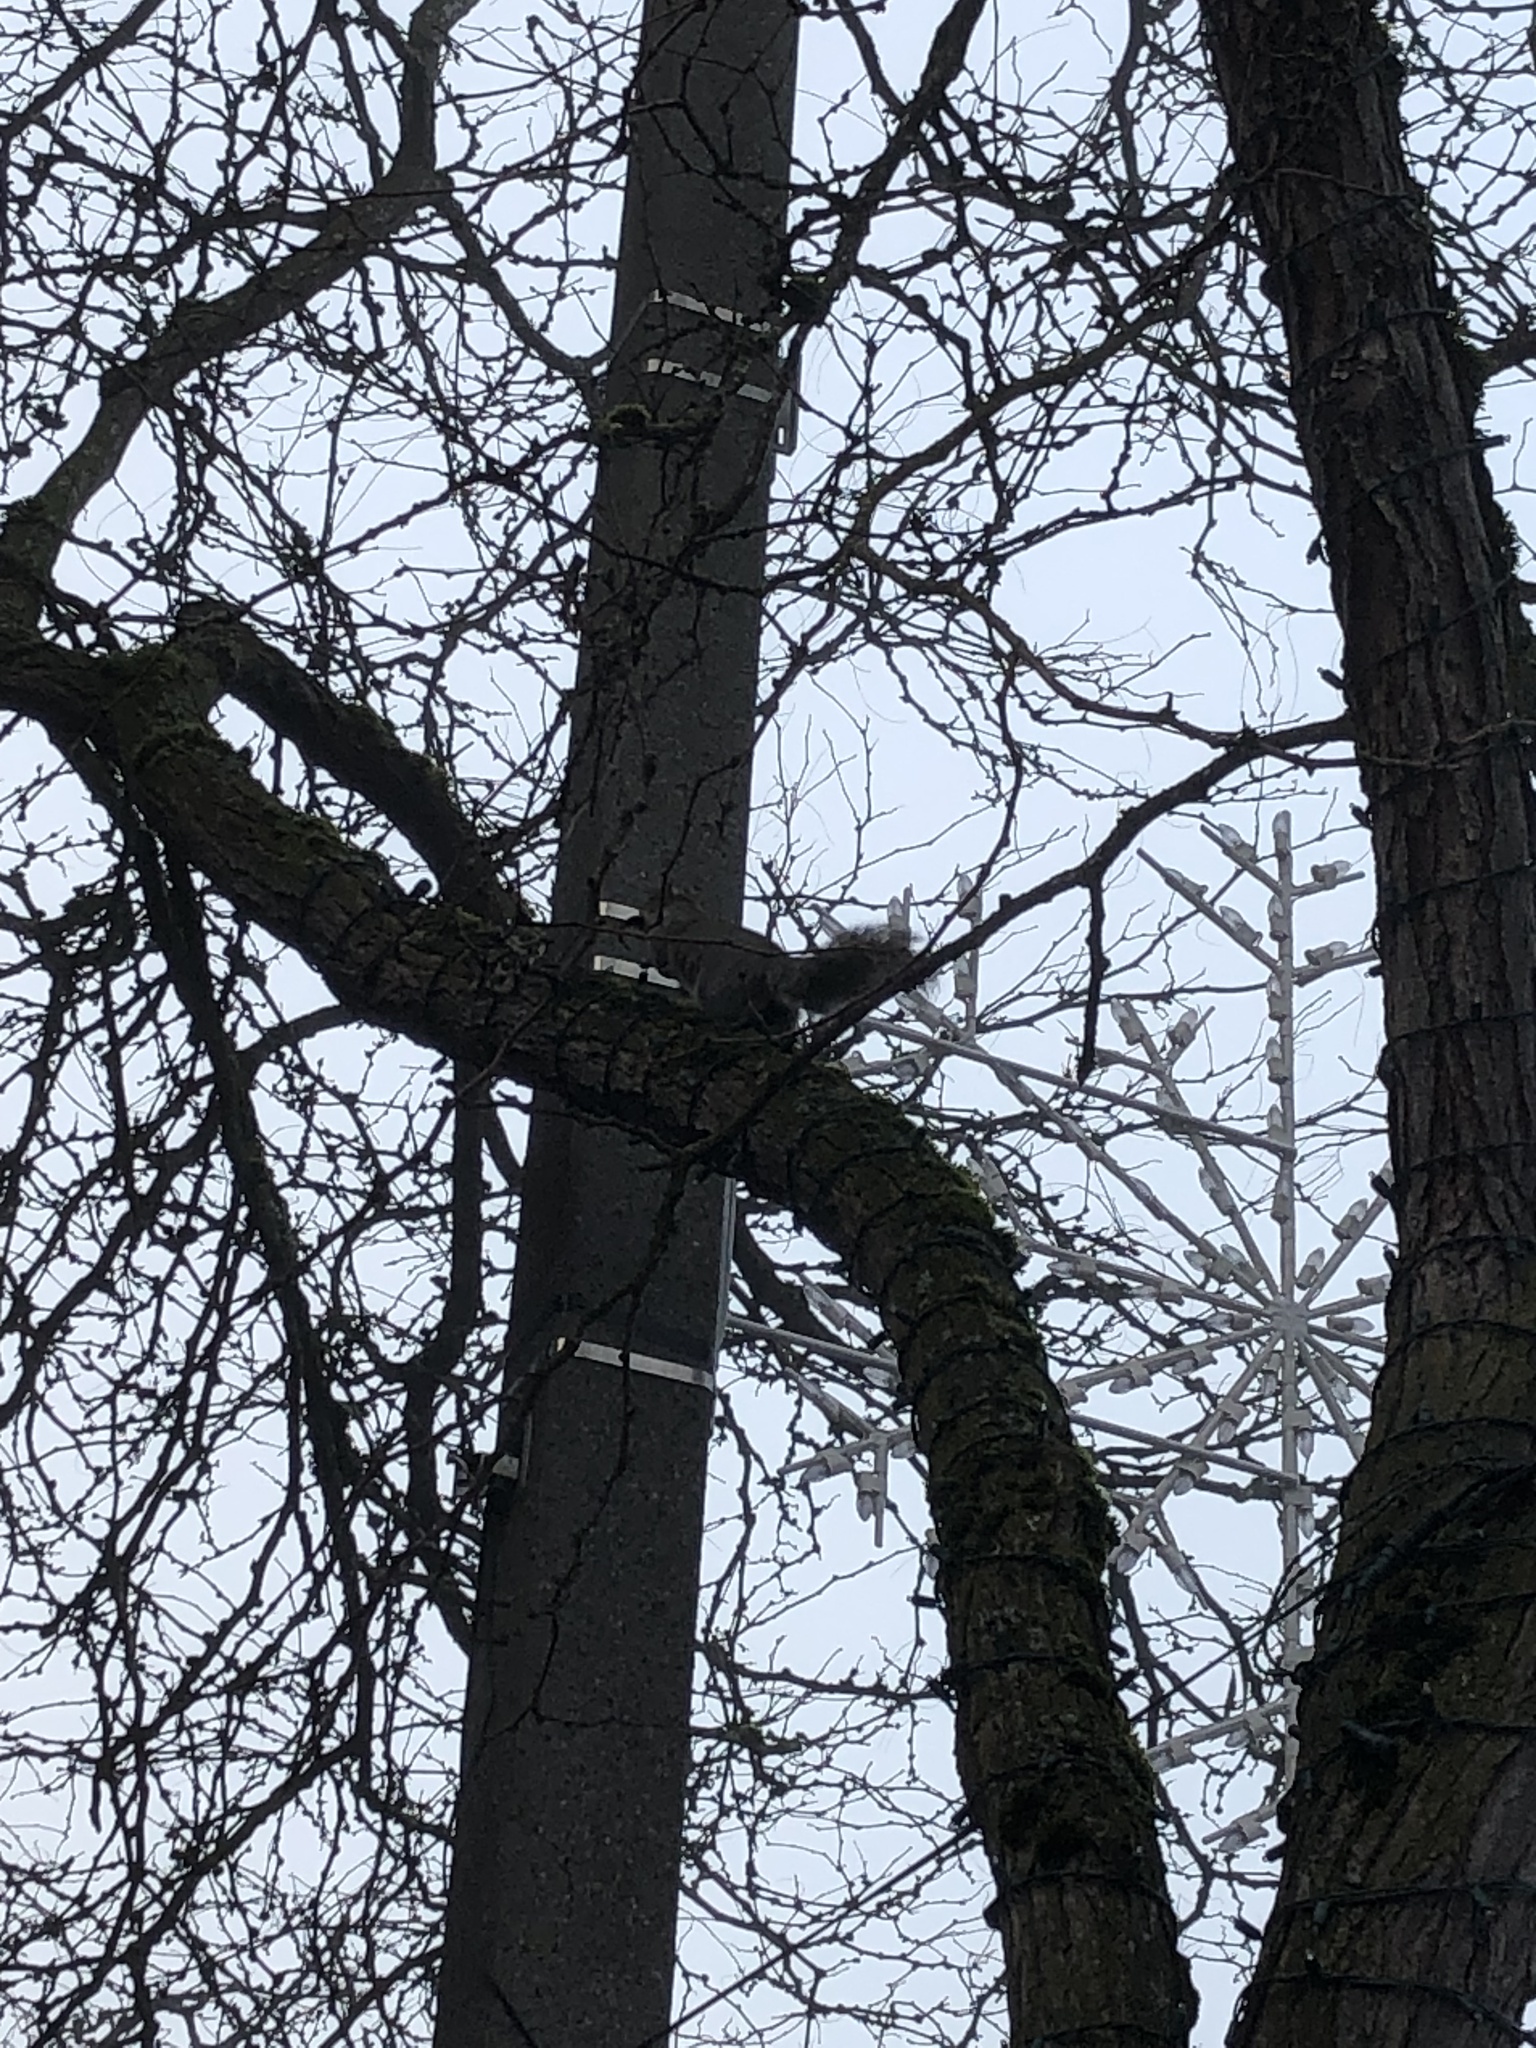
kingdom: Animalia
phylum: Chordata
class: Mammalia
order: Rodentia
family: Sciuridae
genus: Sciurus
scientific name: Sciurus carolinensis
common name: Eastern gray squirrel
